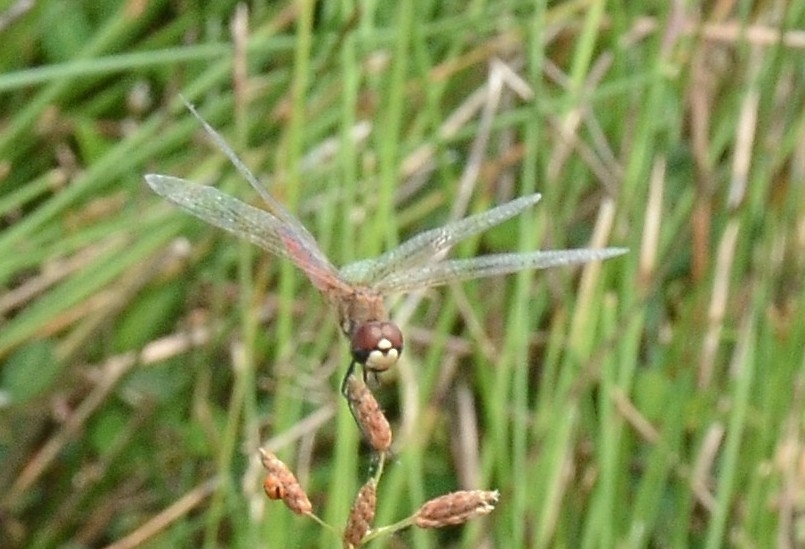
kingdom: Animalia
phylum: Arthropoda
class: Insecta
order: Odonata
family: Libellulidae
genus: Macrodiplax
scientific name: Macrodiplax cora
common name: Coastal glider
